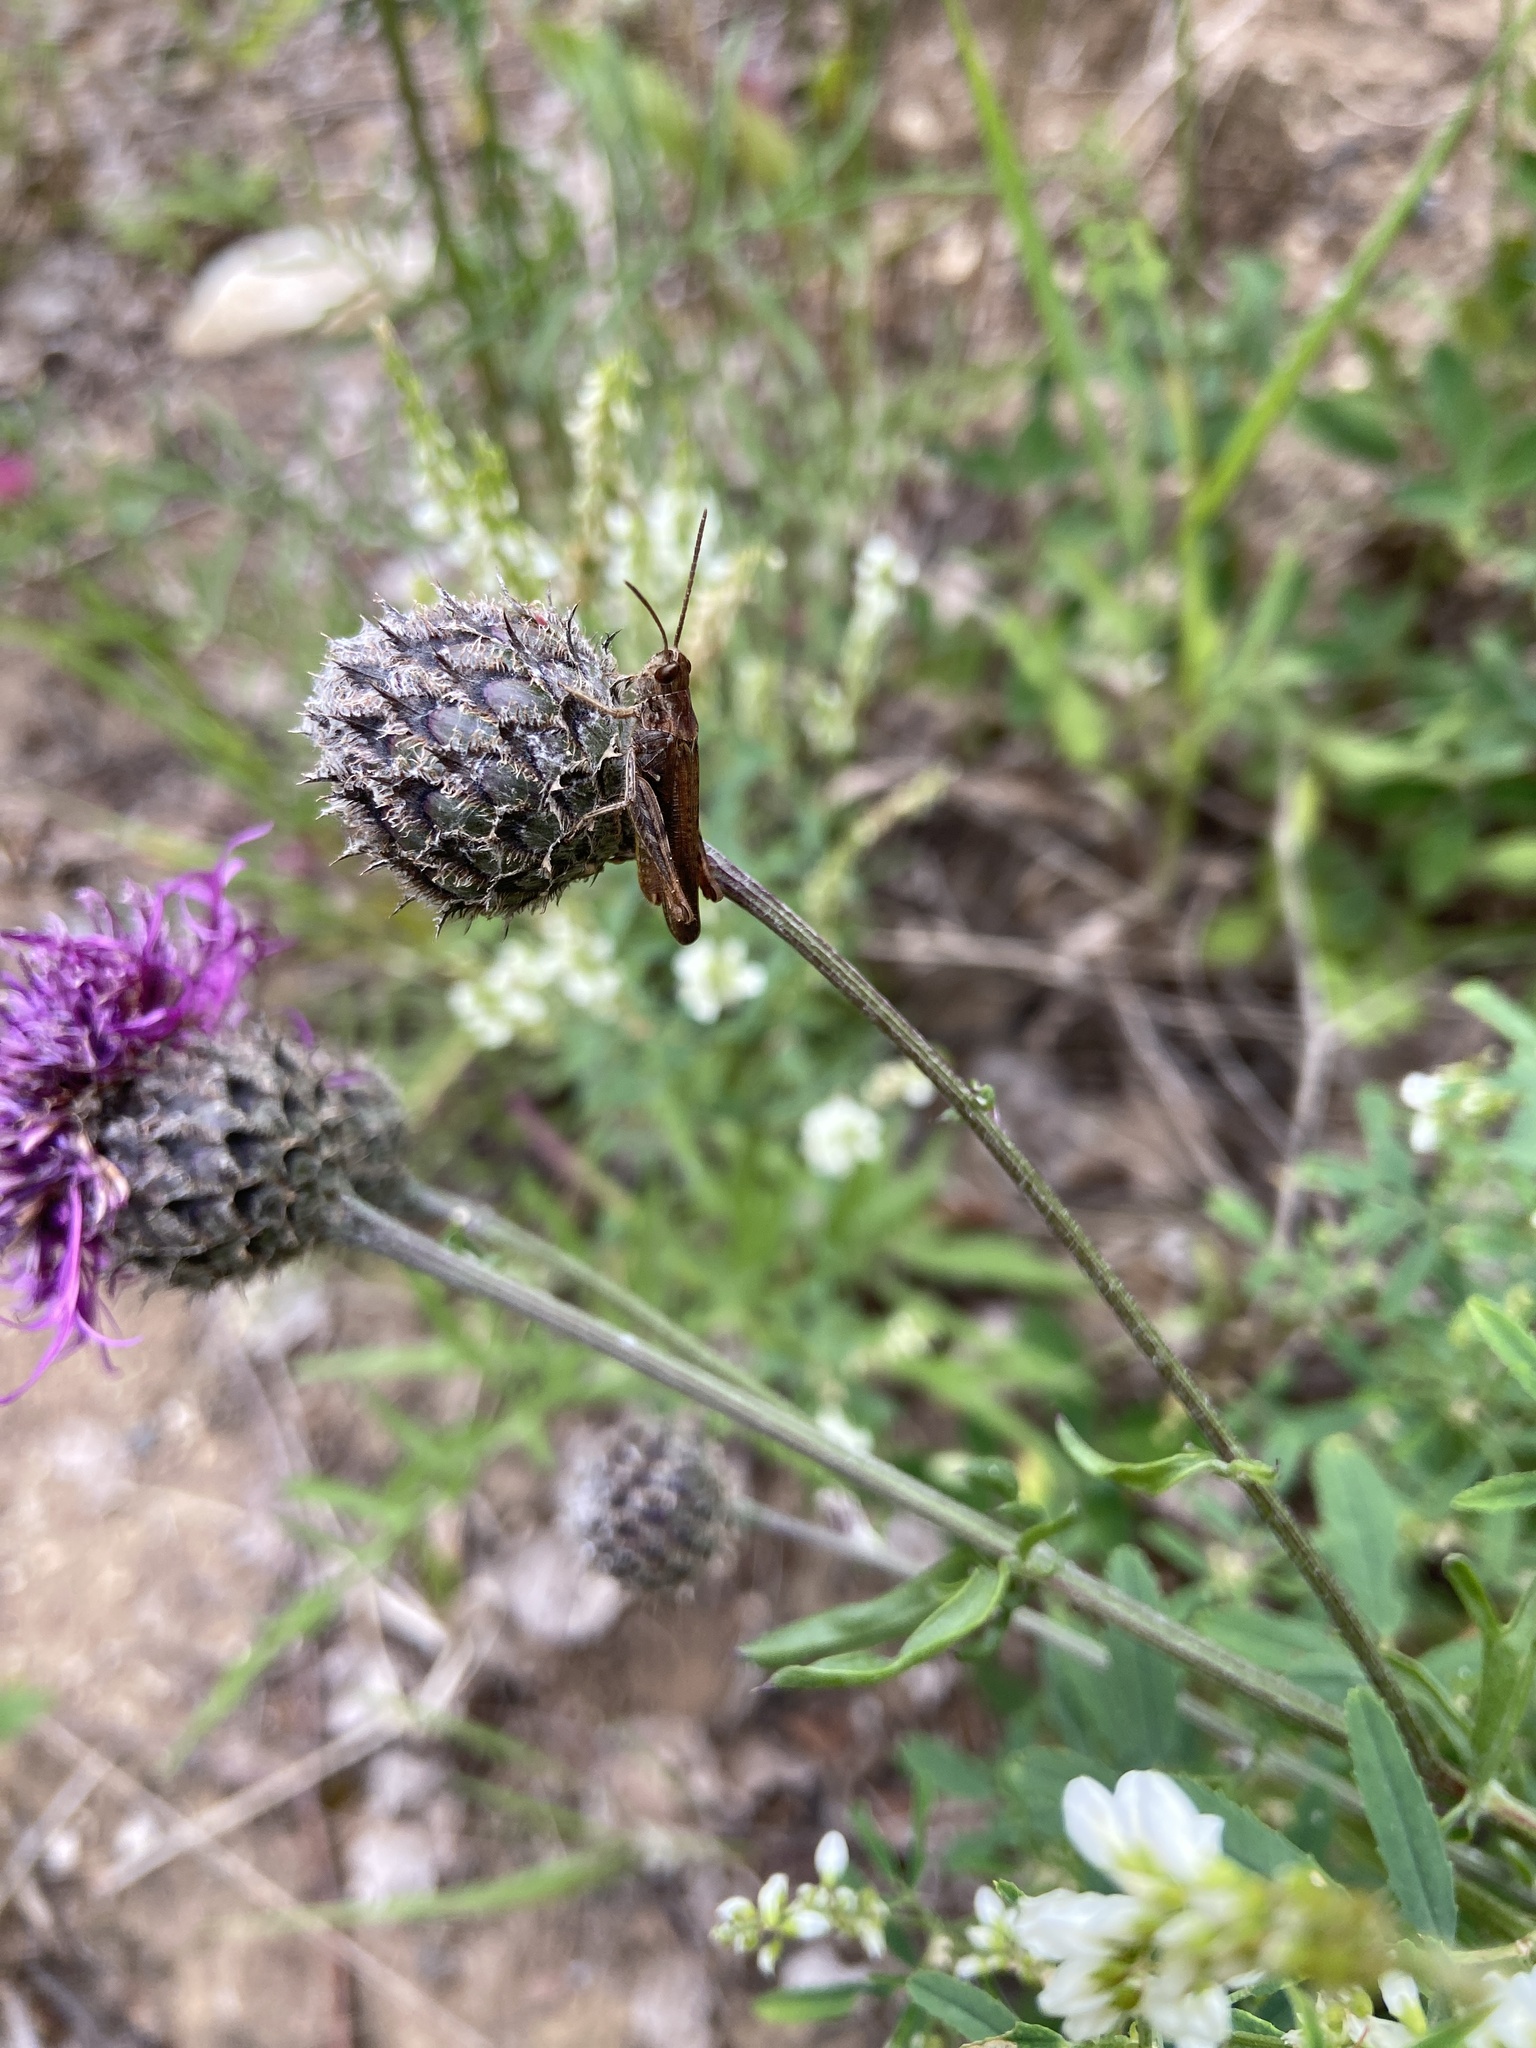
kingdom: Animalia
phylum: Arthropoda
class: Insecta
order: Orthoptera
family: Acrididae
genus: Chorthippus
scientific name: Chorthippus brunneus
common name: Field grasshopper
